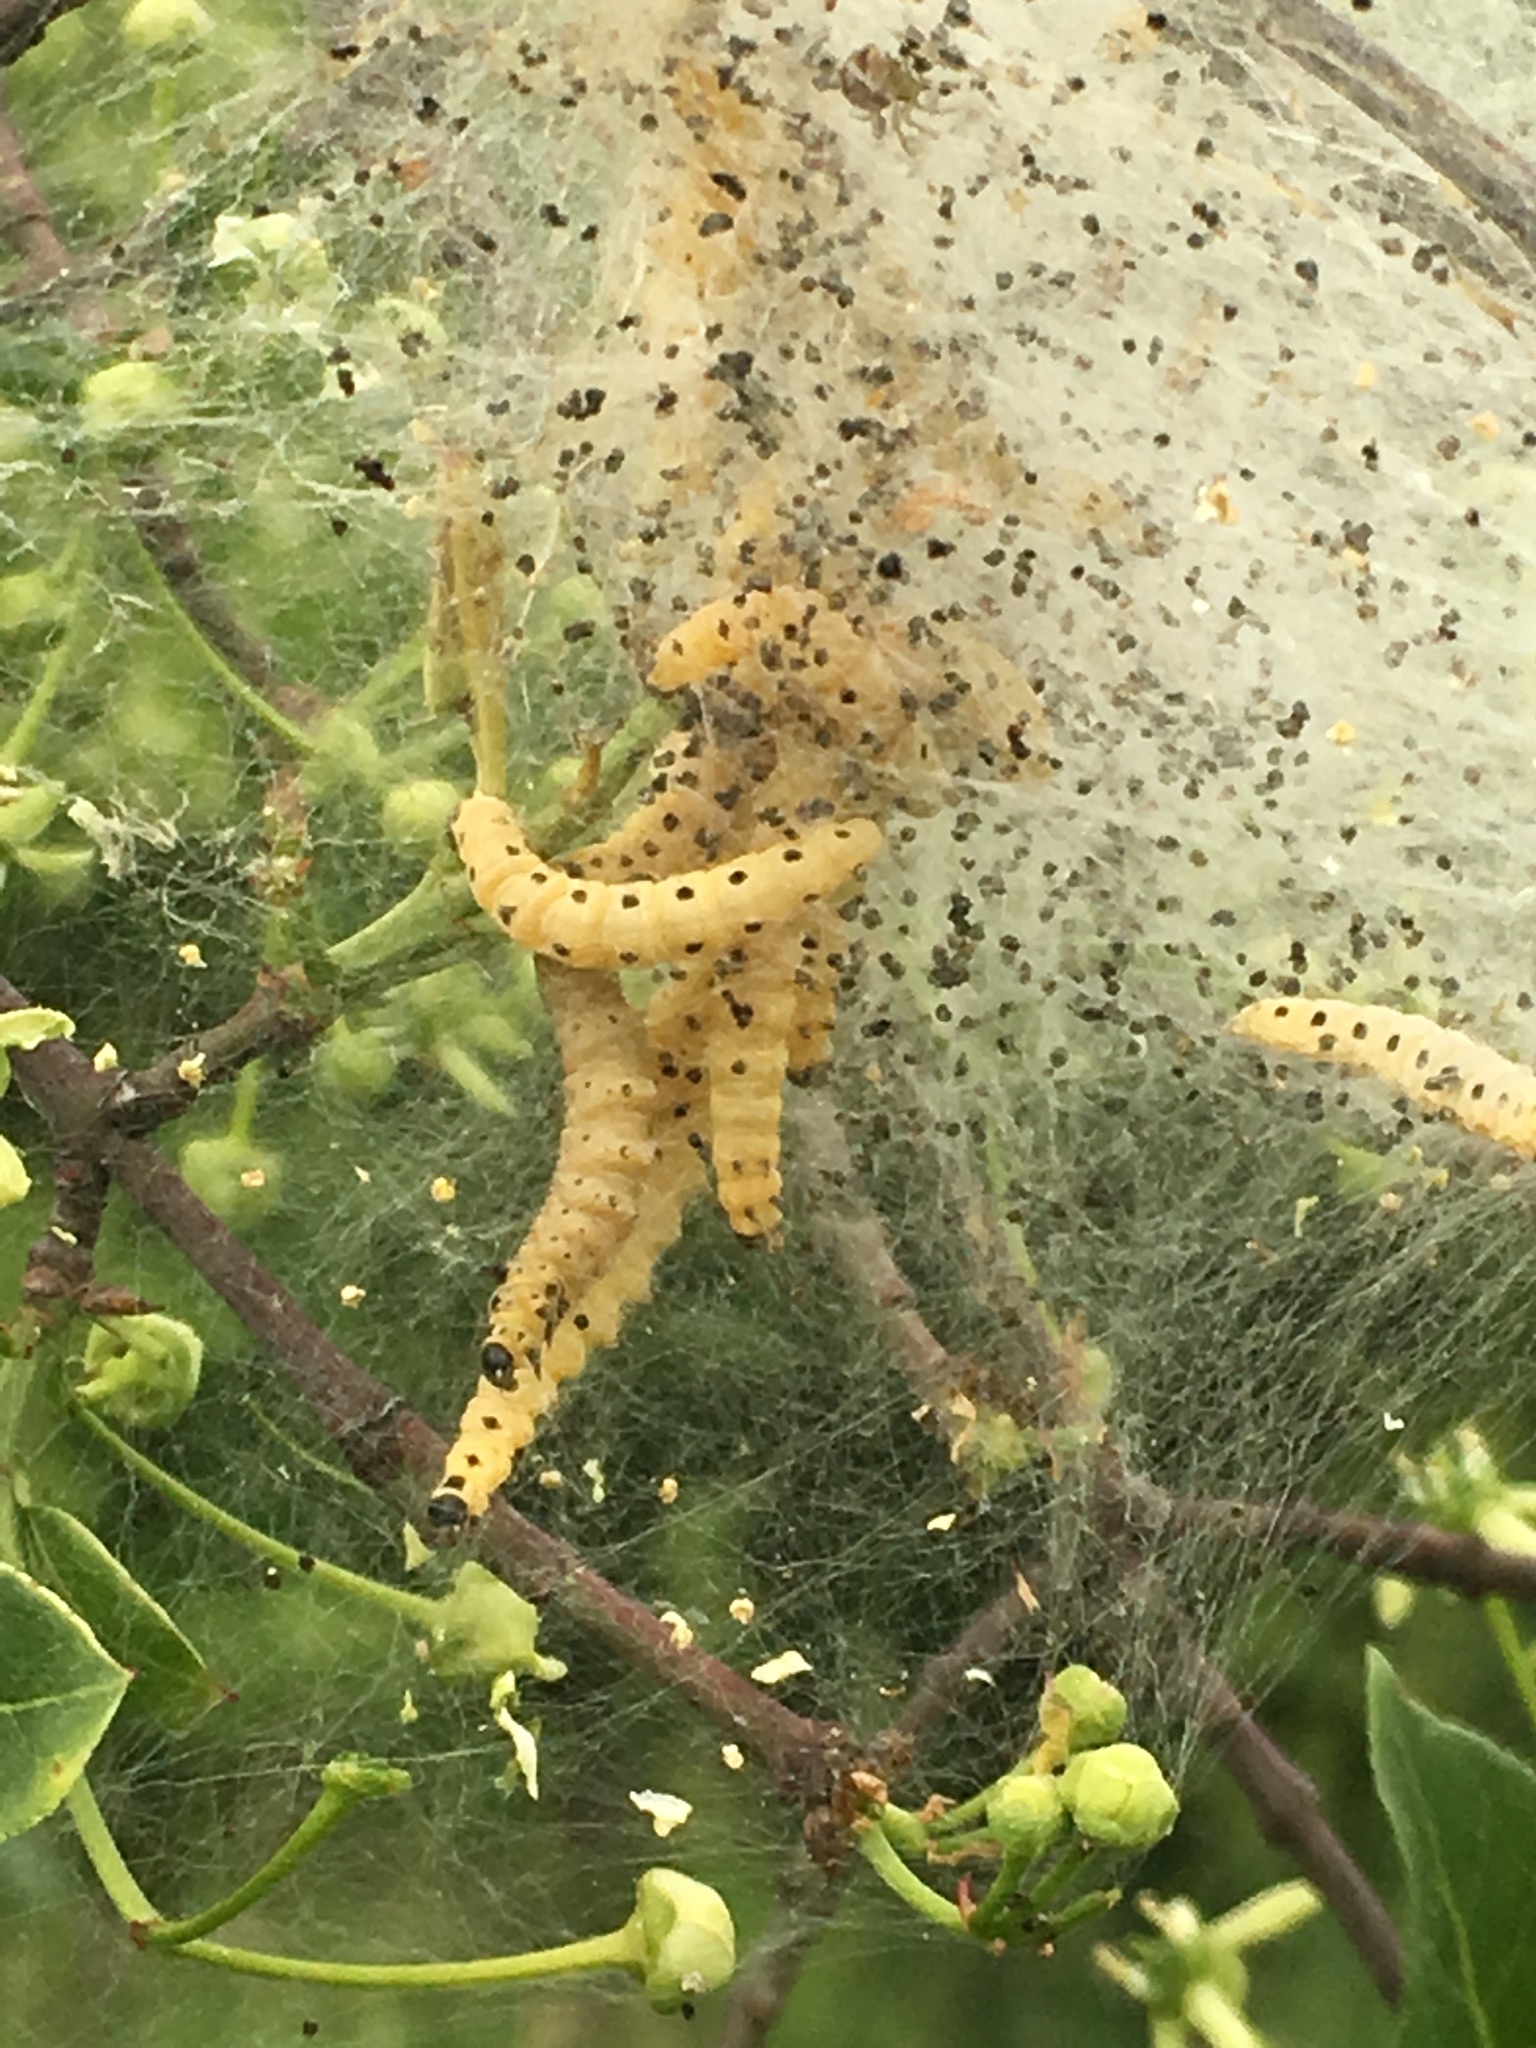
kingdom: Animalia
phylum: Arthropoda
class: Insecta
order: Lepidoptera
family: Yponomeutidae
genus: Yponomeuta
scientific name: Yponomeuta cagnagellus
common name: Spindle ermine
